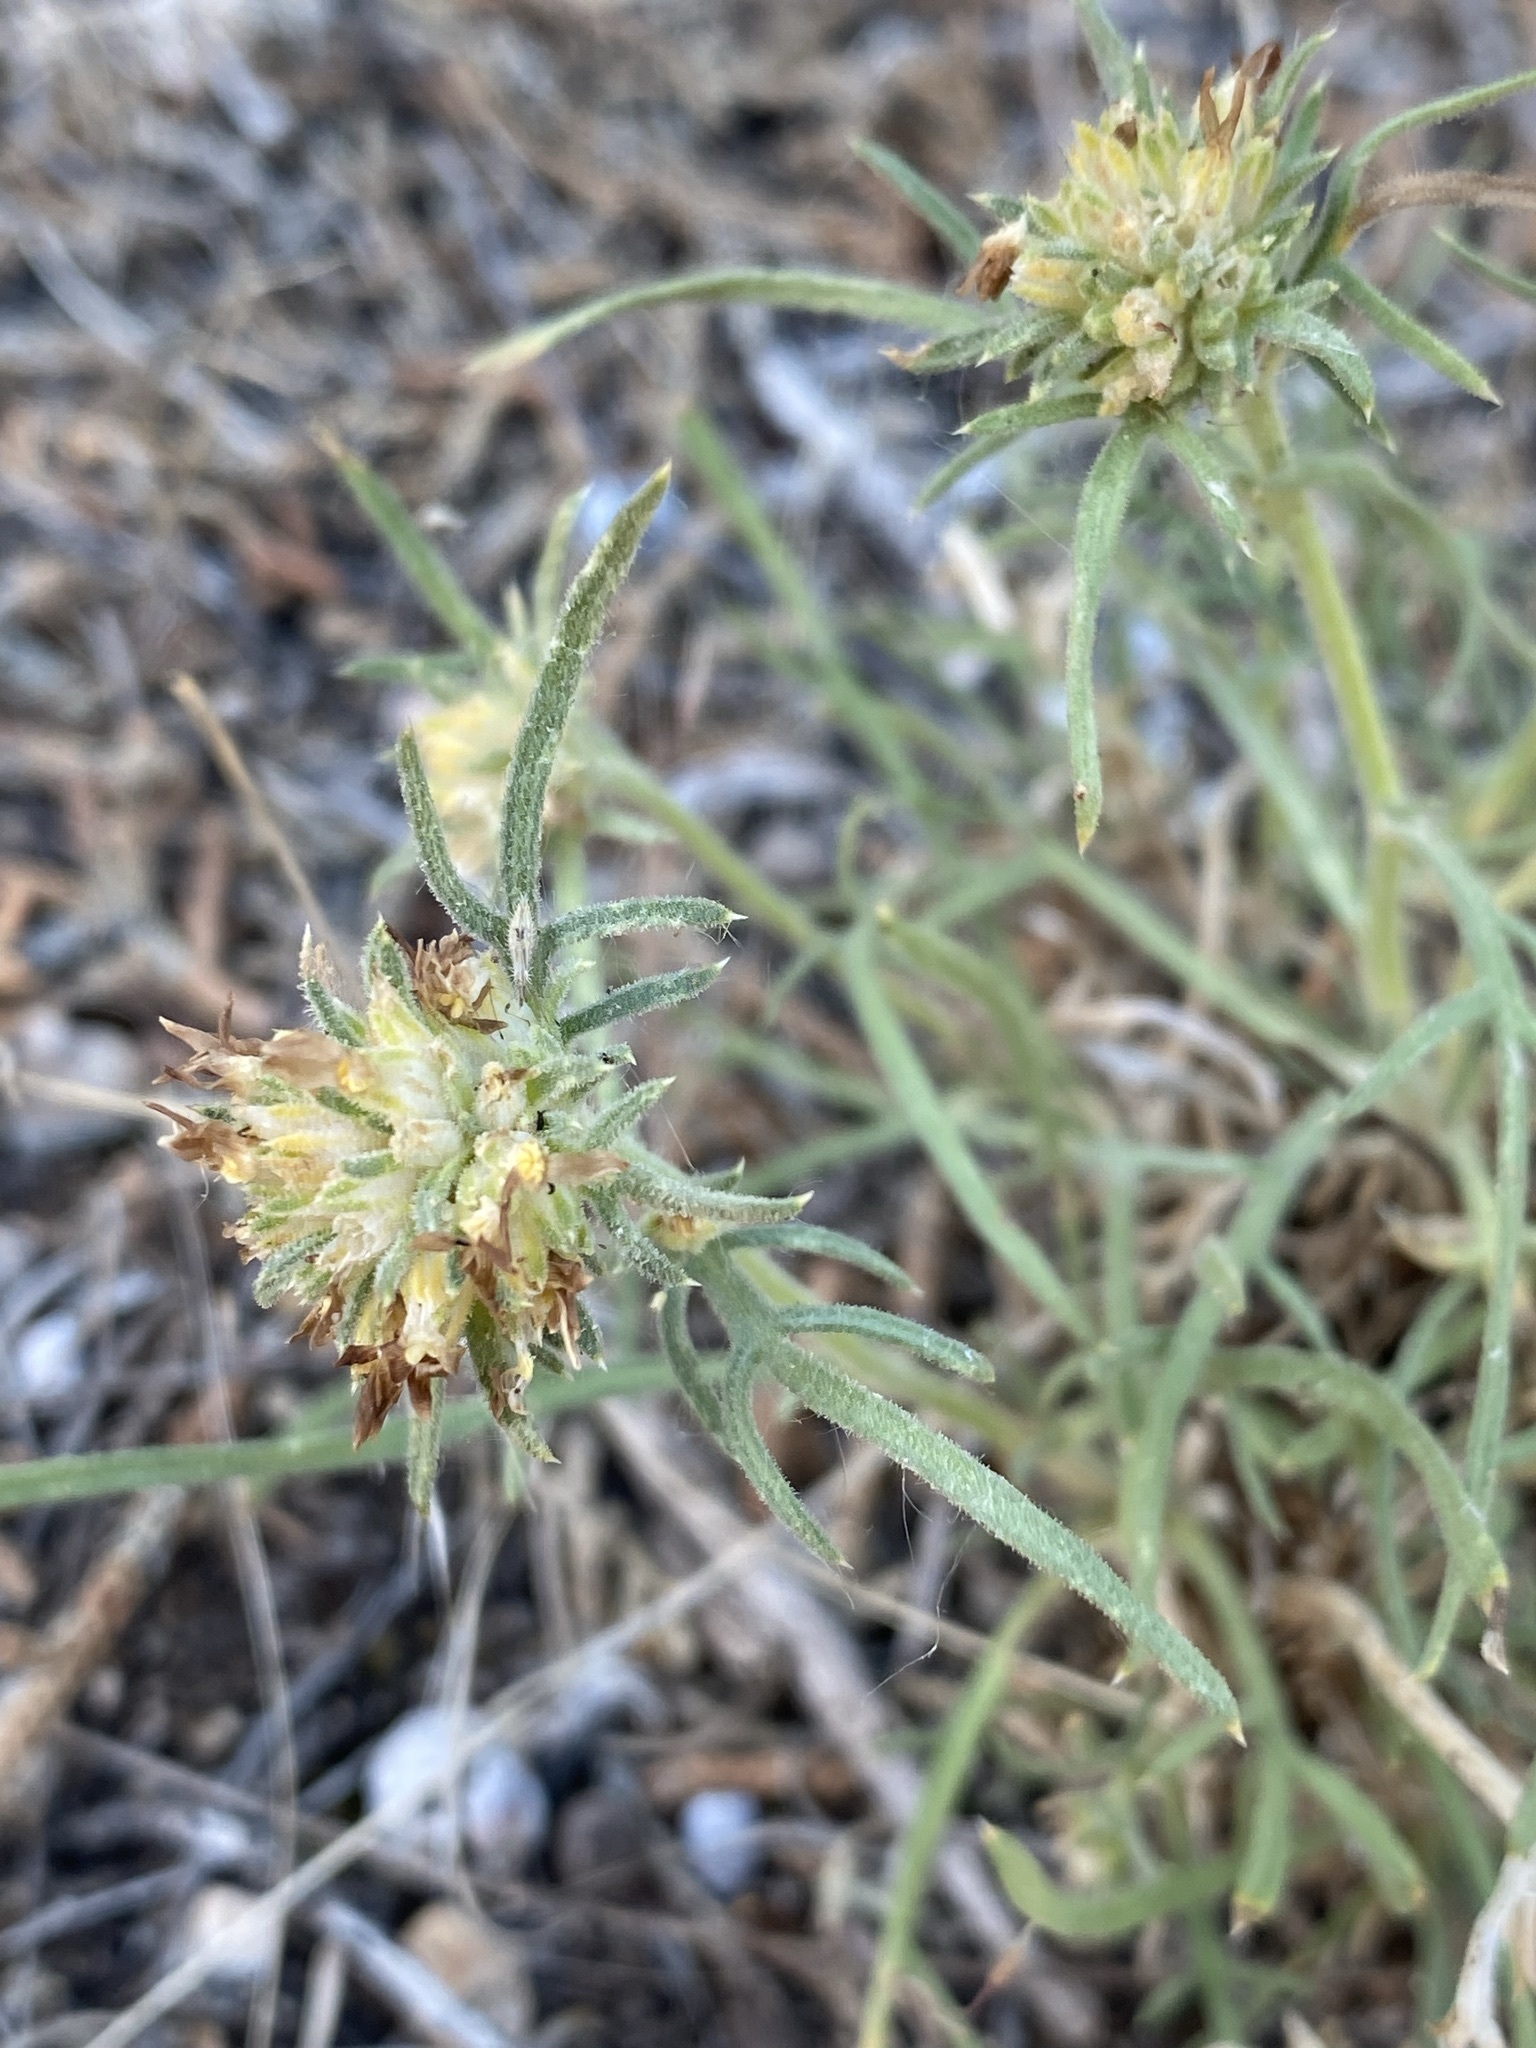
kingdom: Plantae
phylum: Tracheophyta
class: Magnoliopsida
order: Ericales
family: Polemoniaceae
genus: Ipomopsis
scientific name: Ipomopsis spicata
